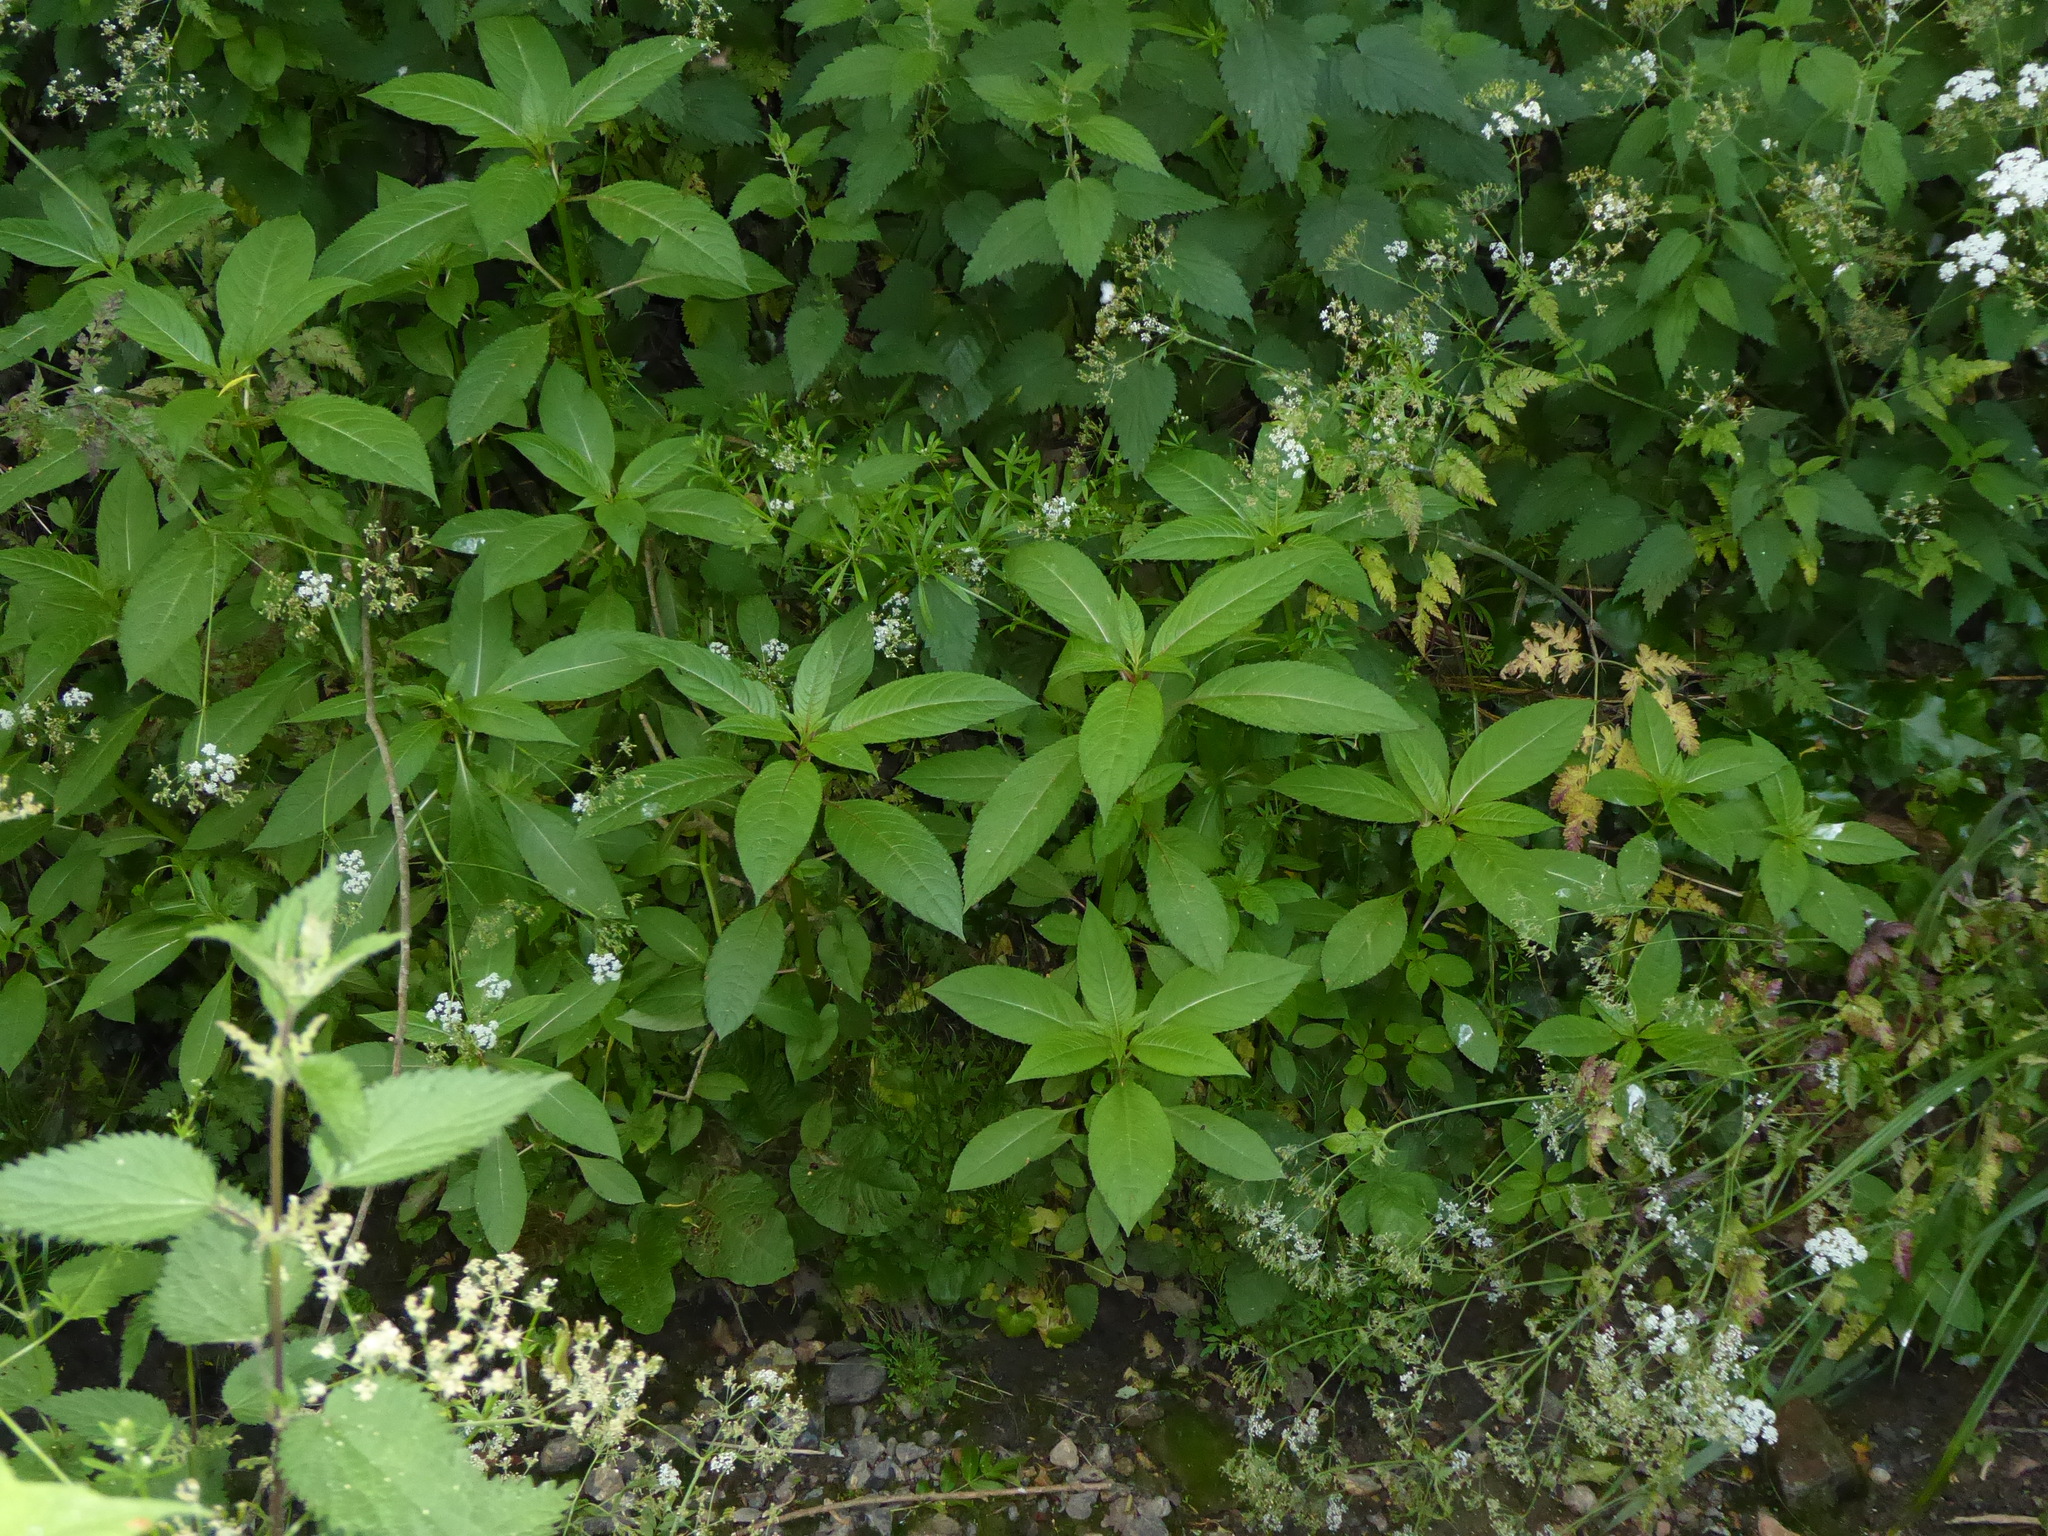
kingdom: Plantae
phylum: Tracheophyta
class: Magnoliopsida
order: Ericales
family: Balsaminaceae
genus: Impatiens
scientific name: Impatiens glandulifera
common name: Himalayan balsam
